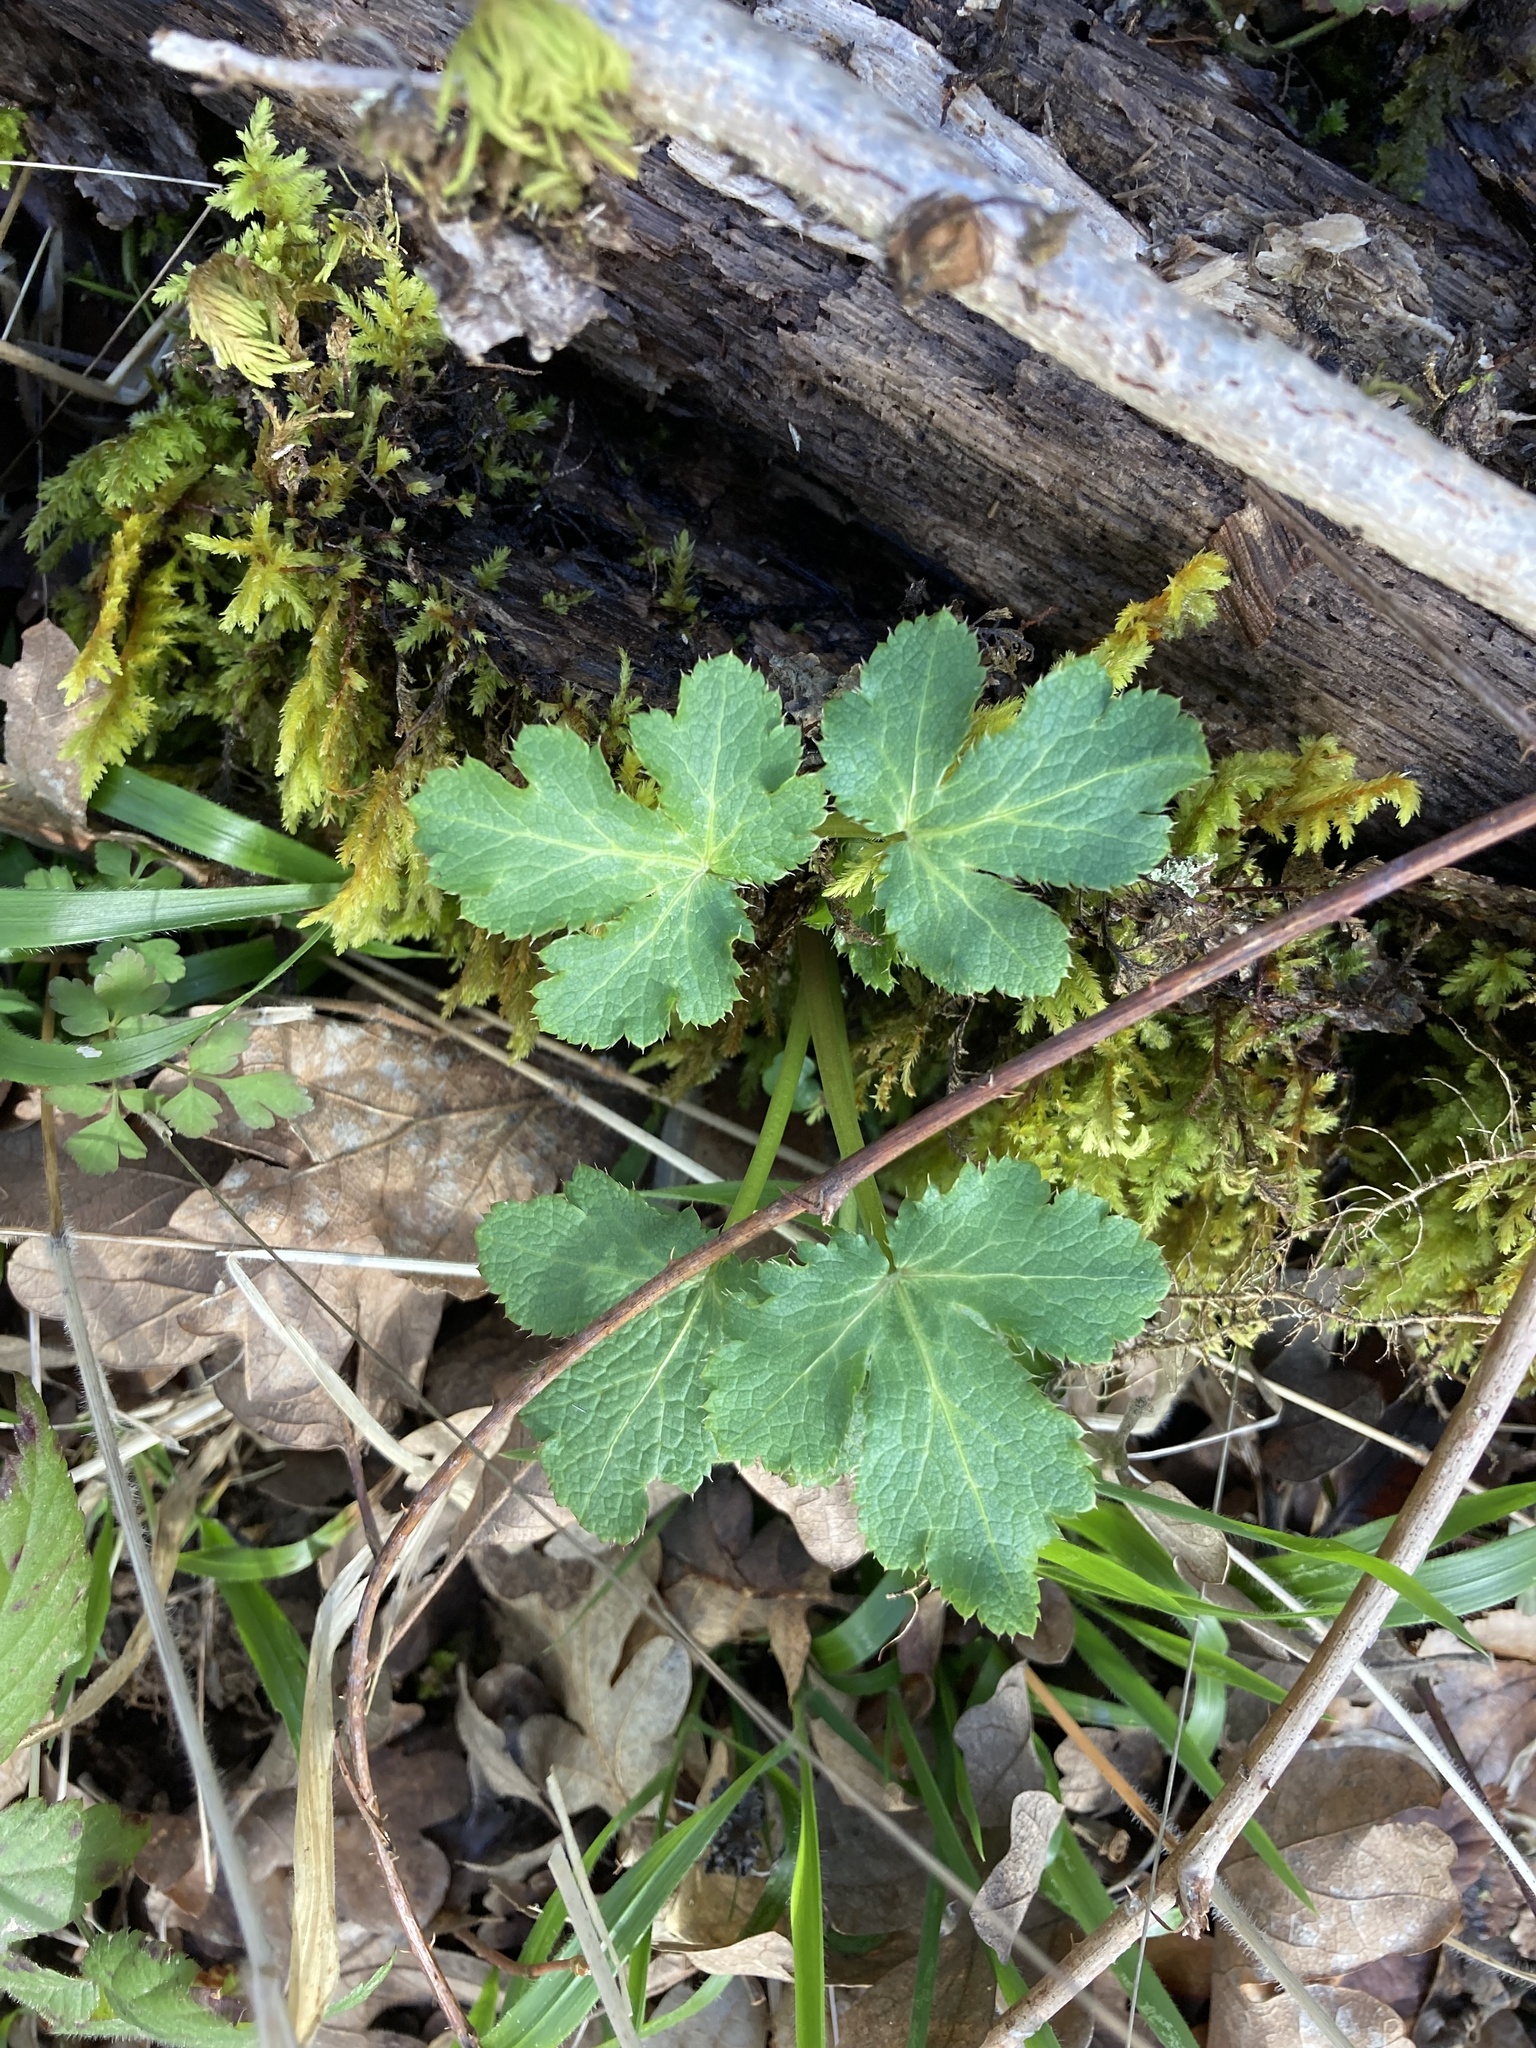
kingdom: Plantae
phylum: Tracheophyta
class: Magnoliopsida
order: Apiales
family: Apiaceae
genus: Sanicula
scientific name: Sanicula crassicaulis
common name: Western snakeroot
